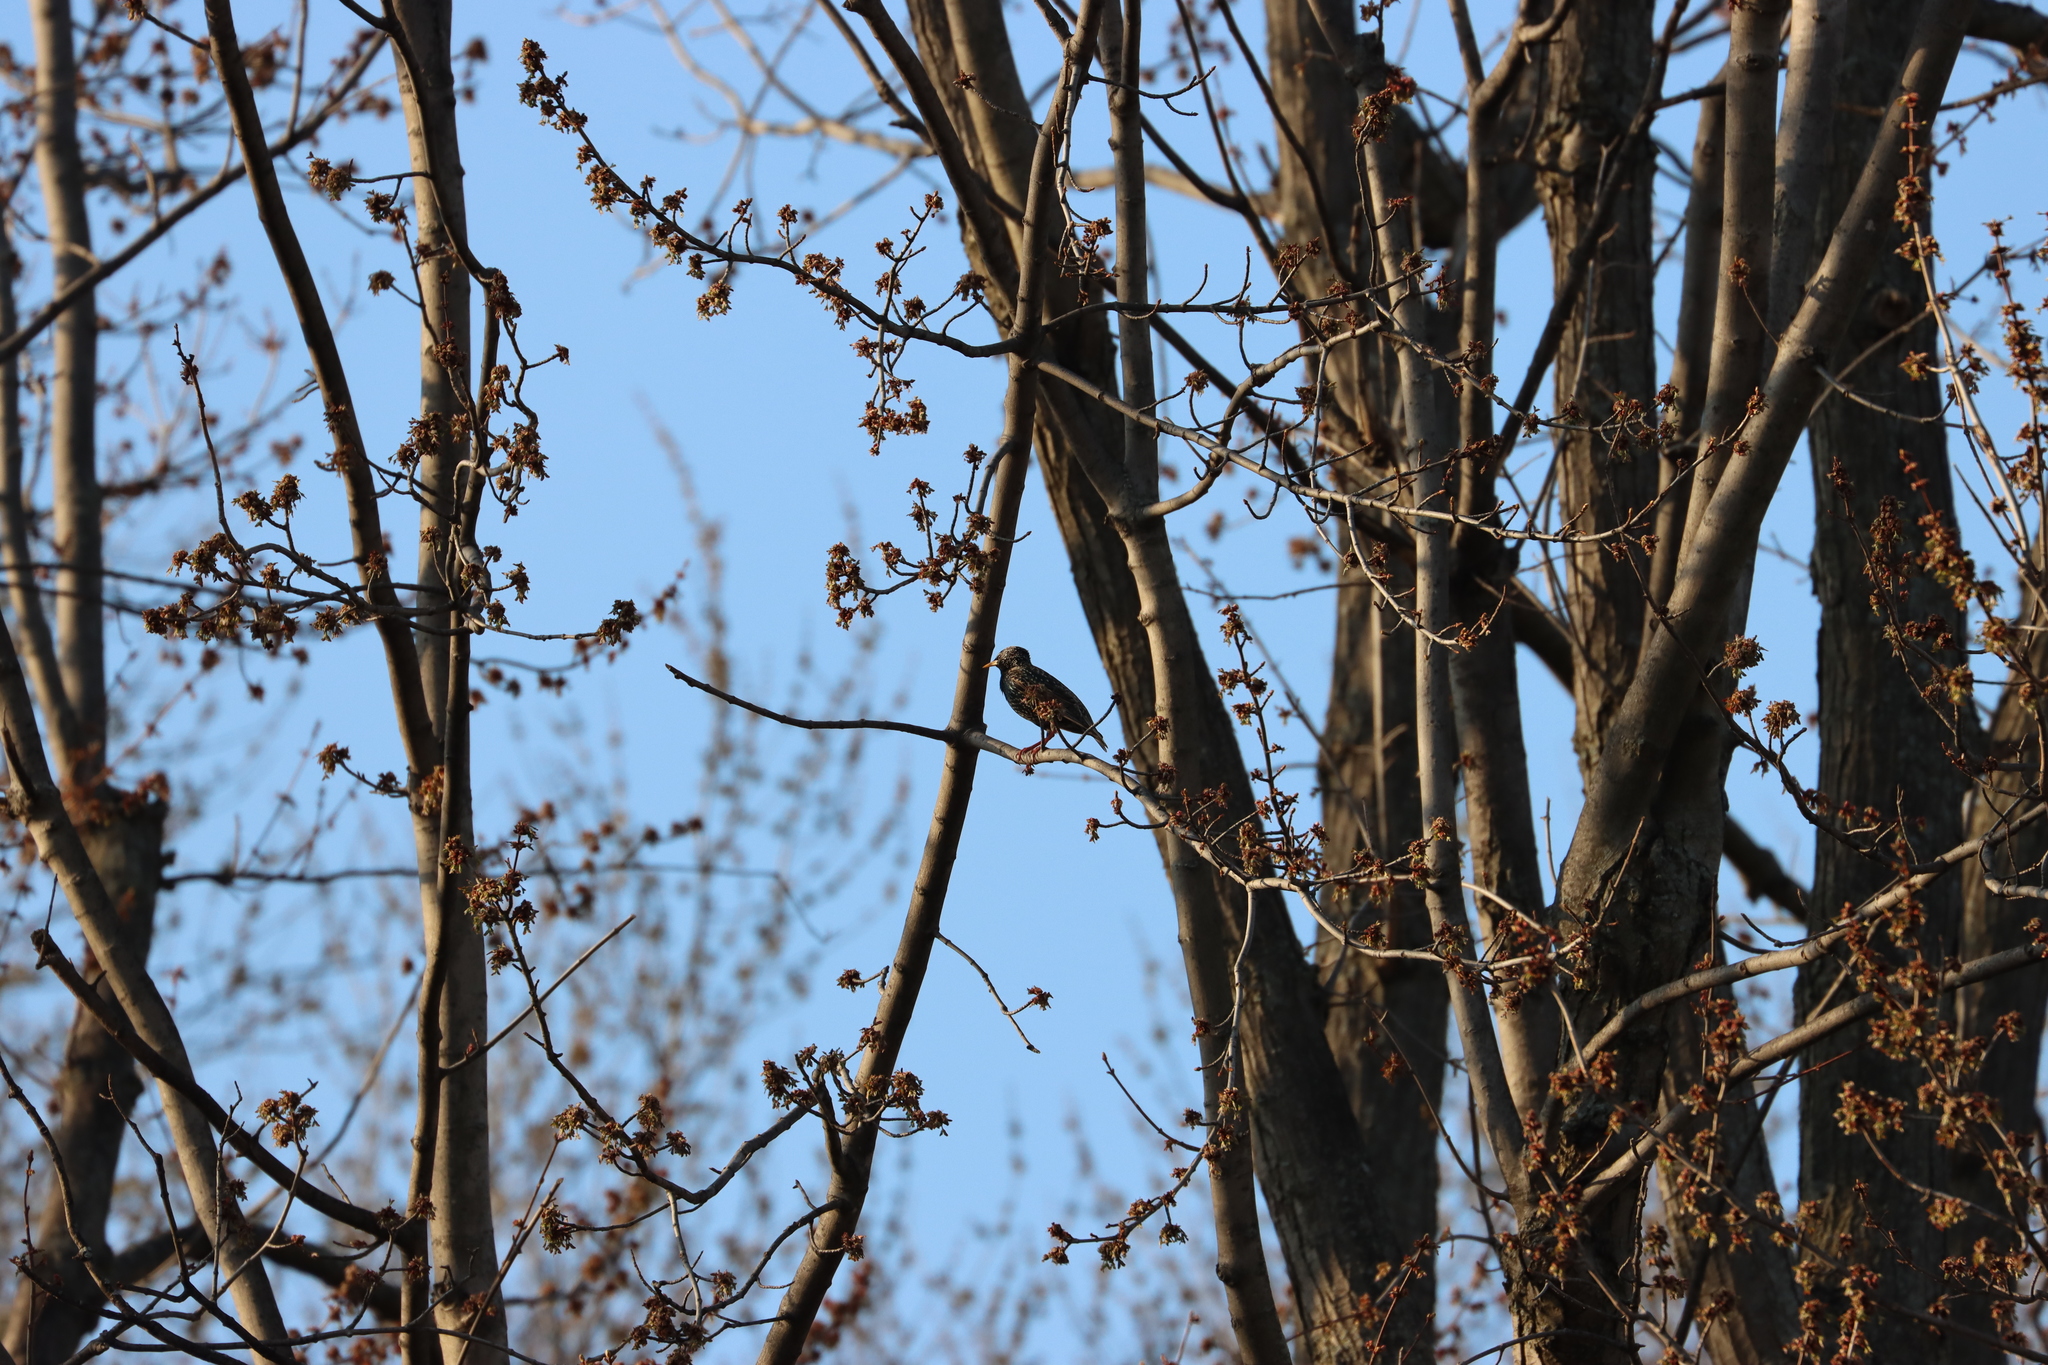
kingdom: Animalia
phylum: Chordata
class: Aves
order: Passeriformes
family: Sturnidae
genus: Sturnus
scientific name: Sturnus vulgaris
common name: Common starling
